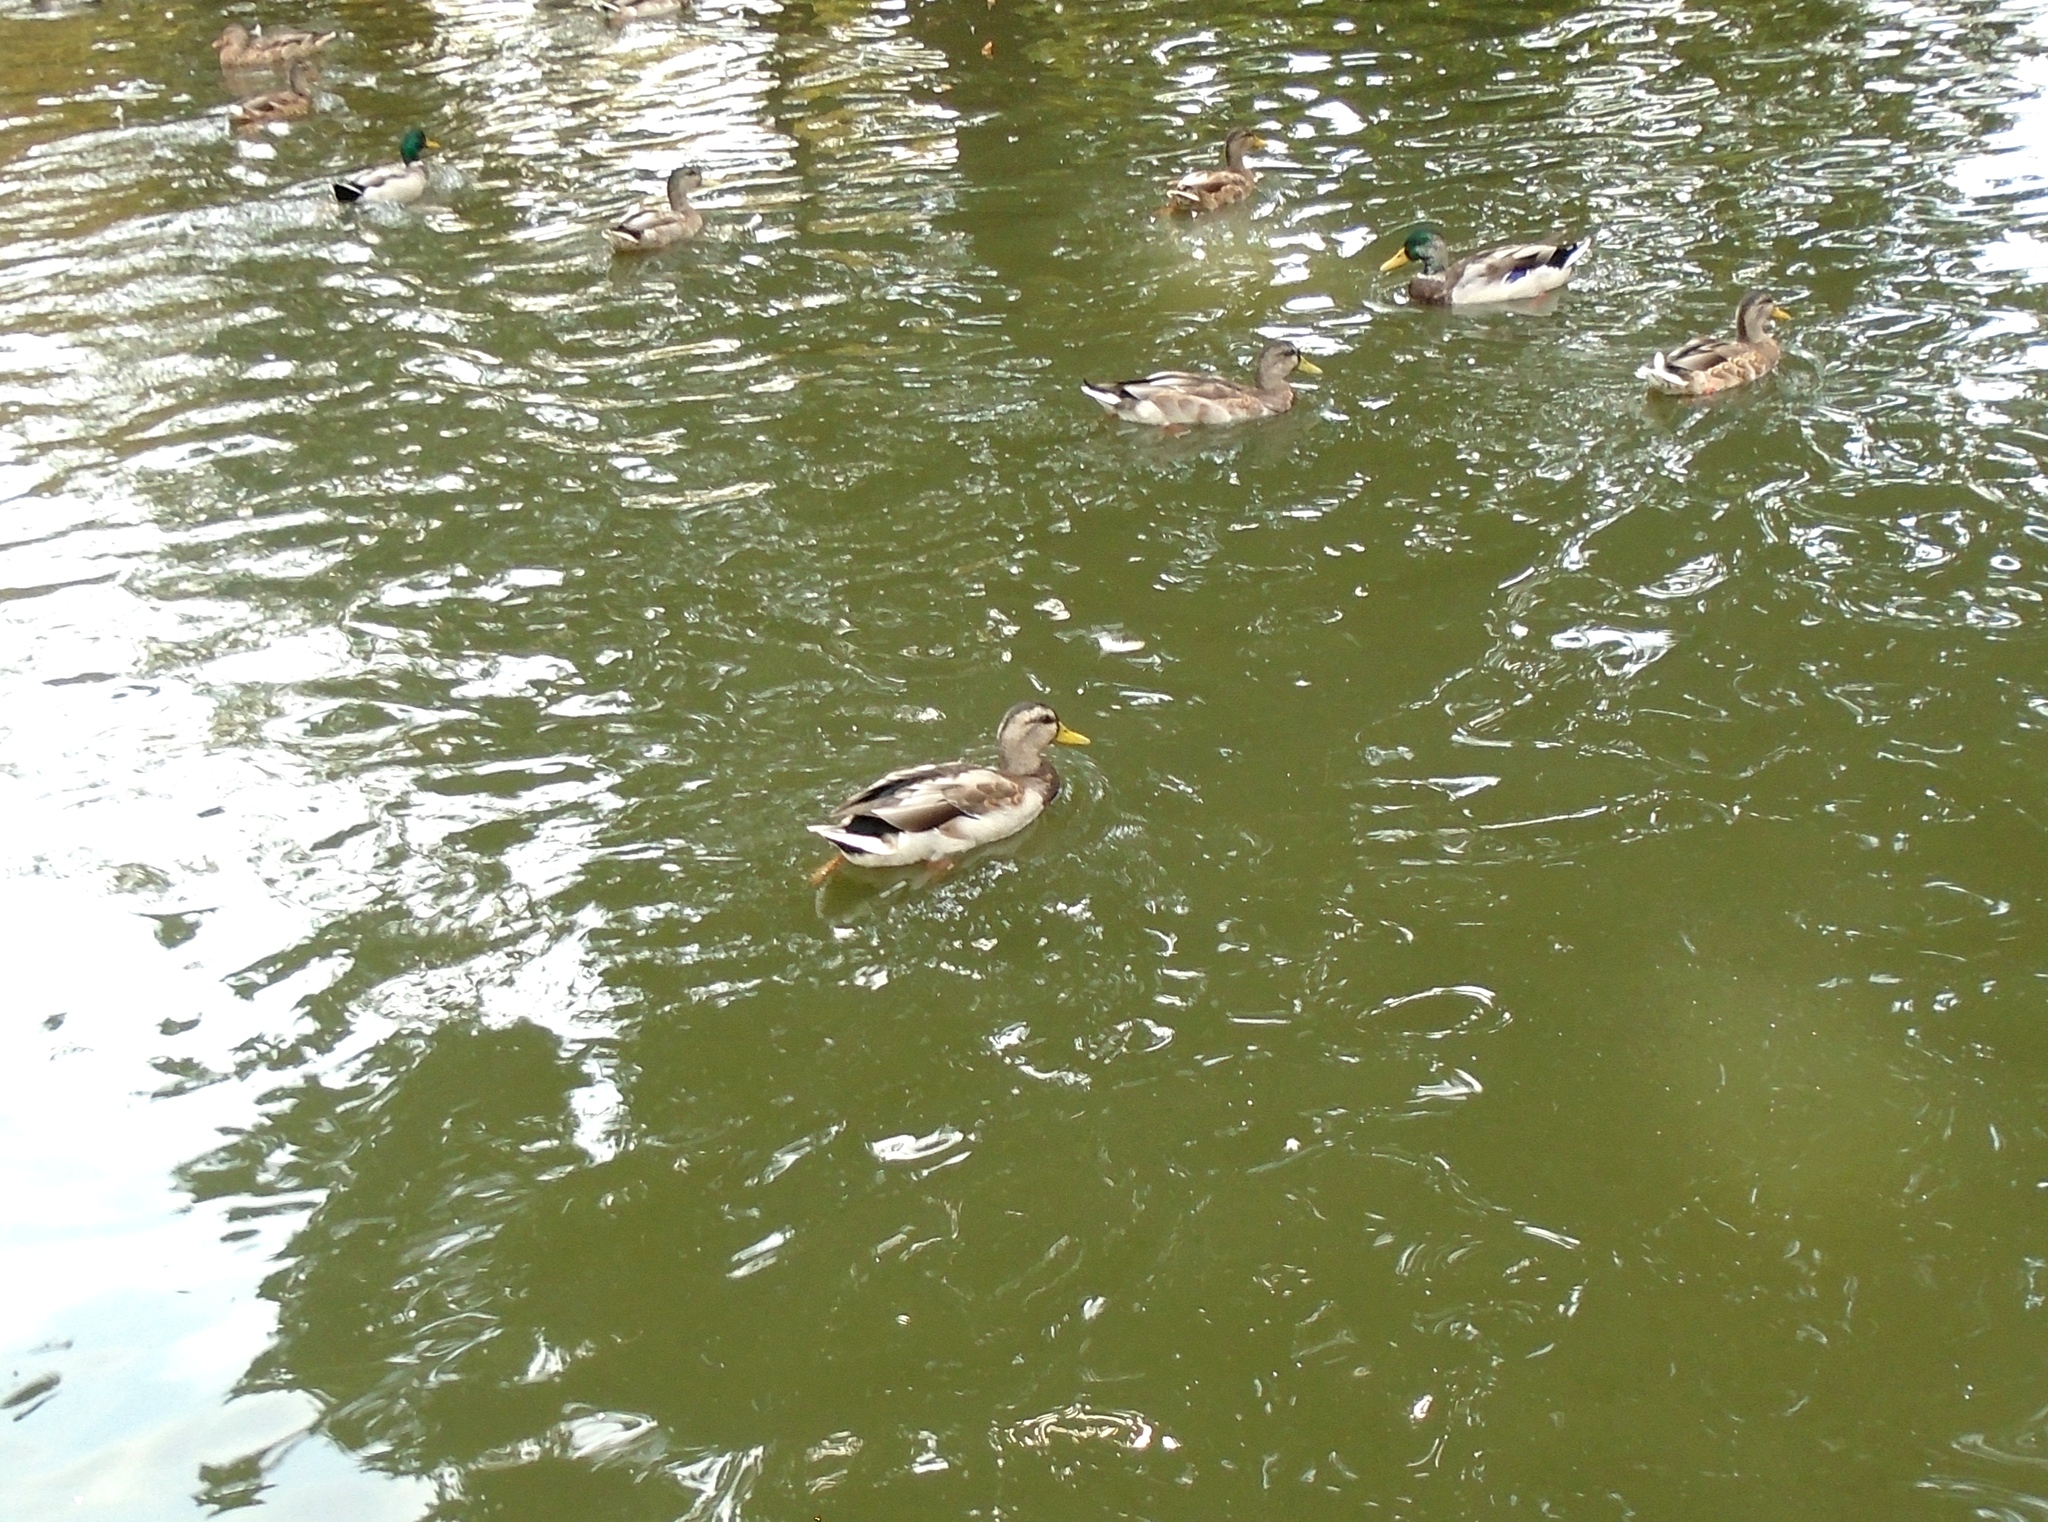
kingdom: Animalia
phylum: Chordata
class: Aves
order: Anseriformes
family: Anatidae
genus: Anas
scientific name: Anas platyrhynchos
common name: Mallard
